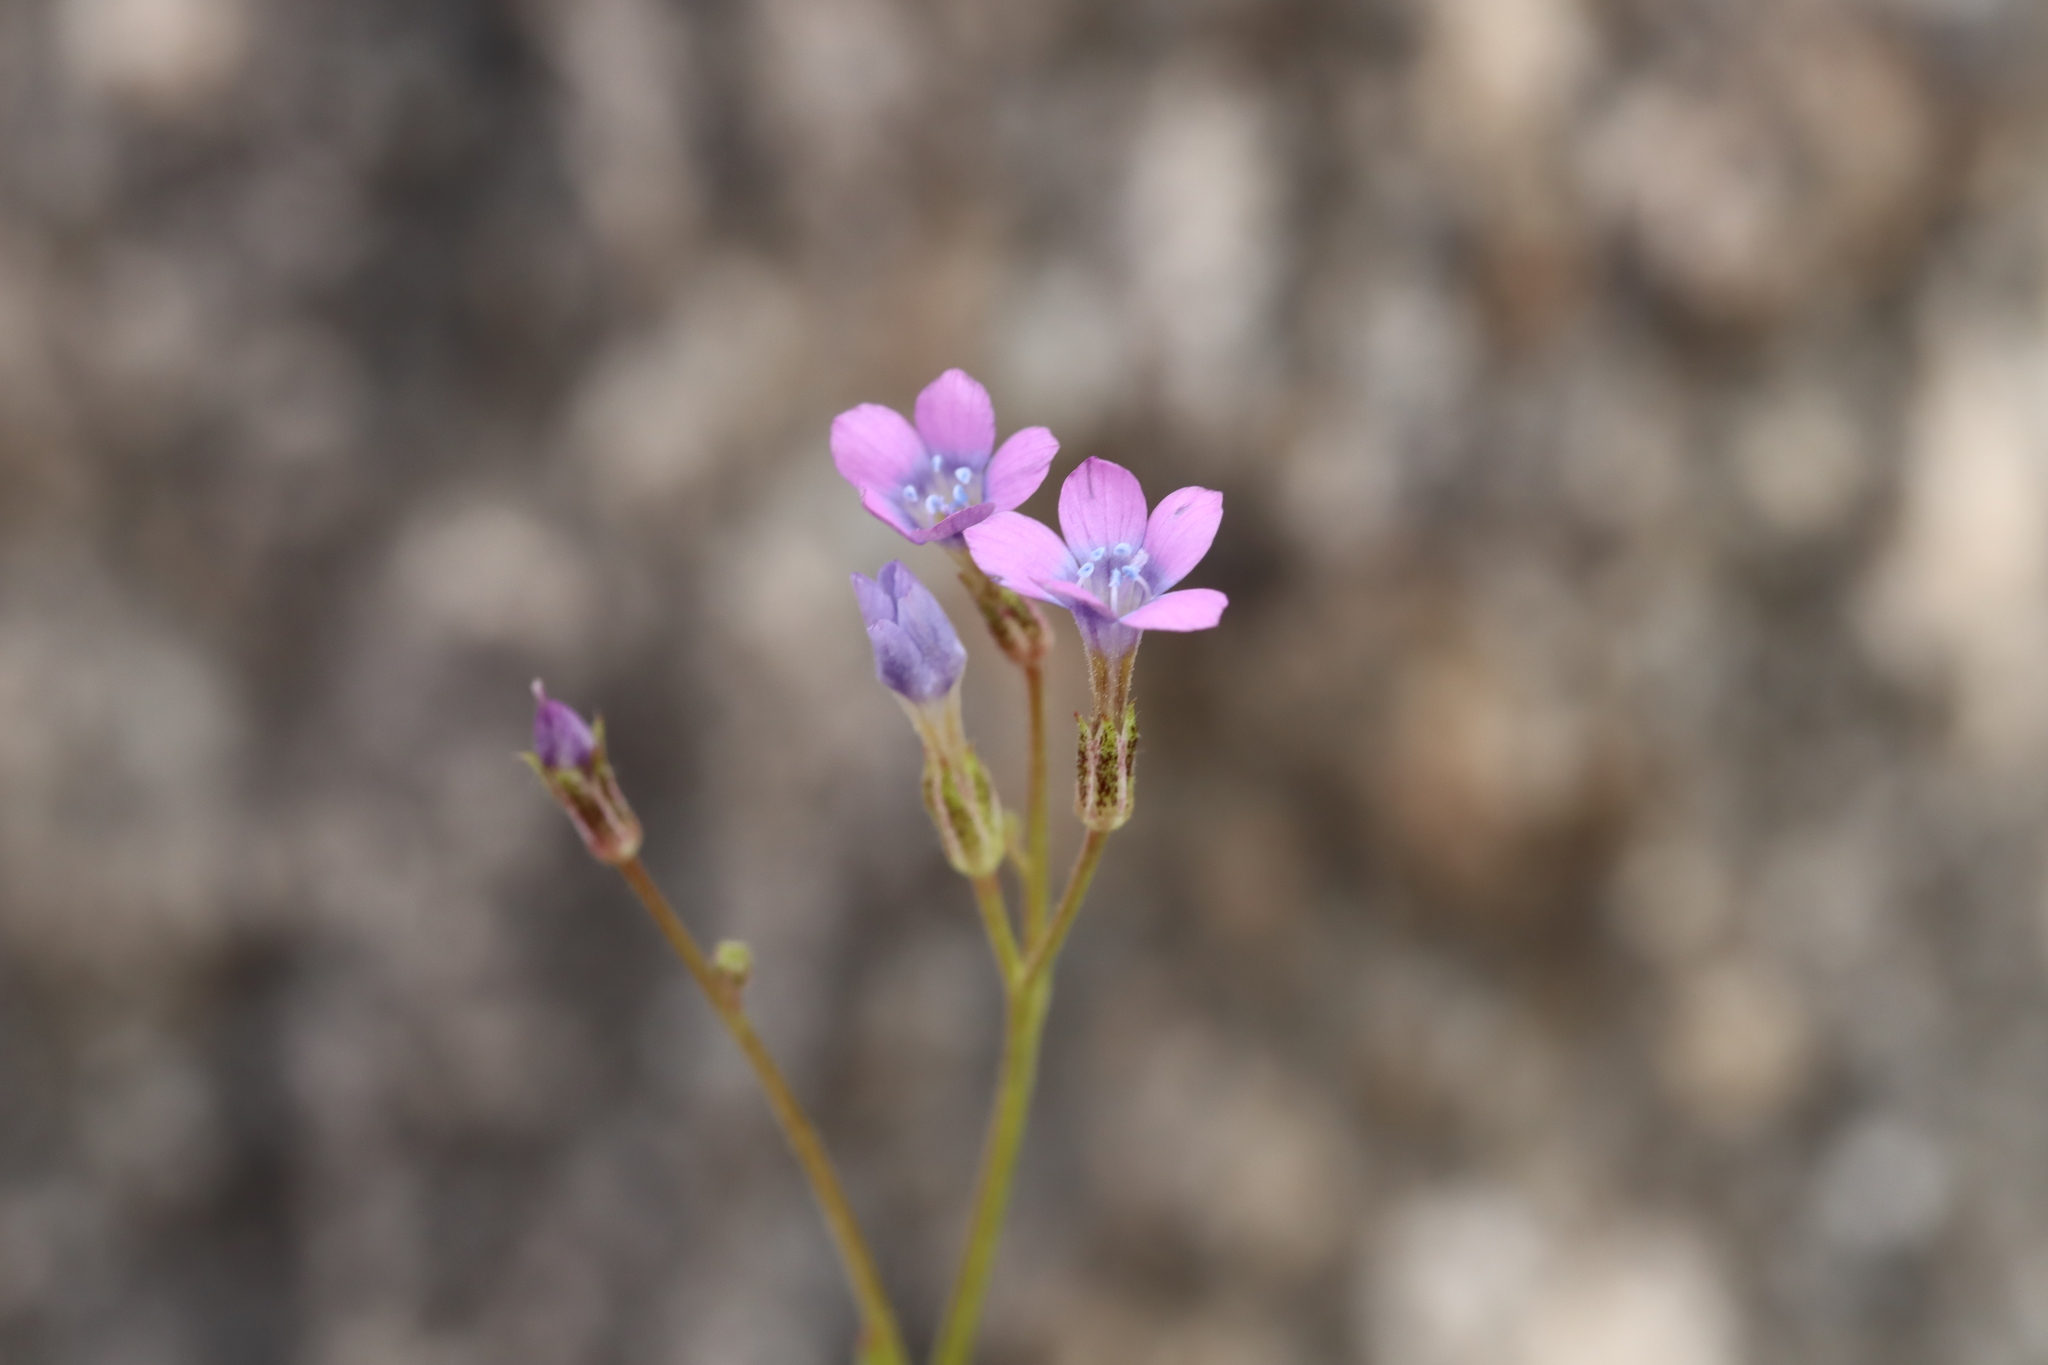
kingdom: Plantae
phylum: Tracheophyta
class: Magnoliopsida
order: Ericales
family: Polemoniaceae
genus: Gilia
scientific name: Gilia flavocincta
